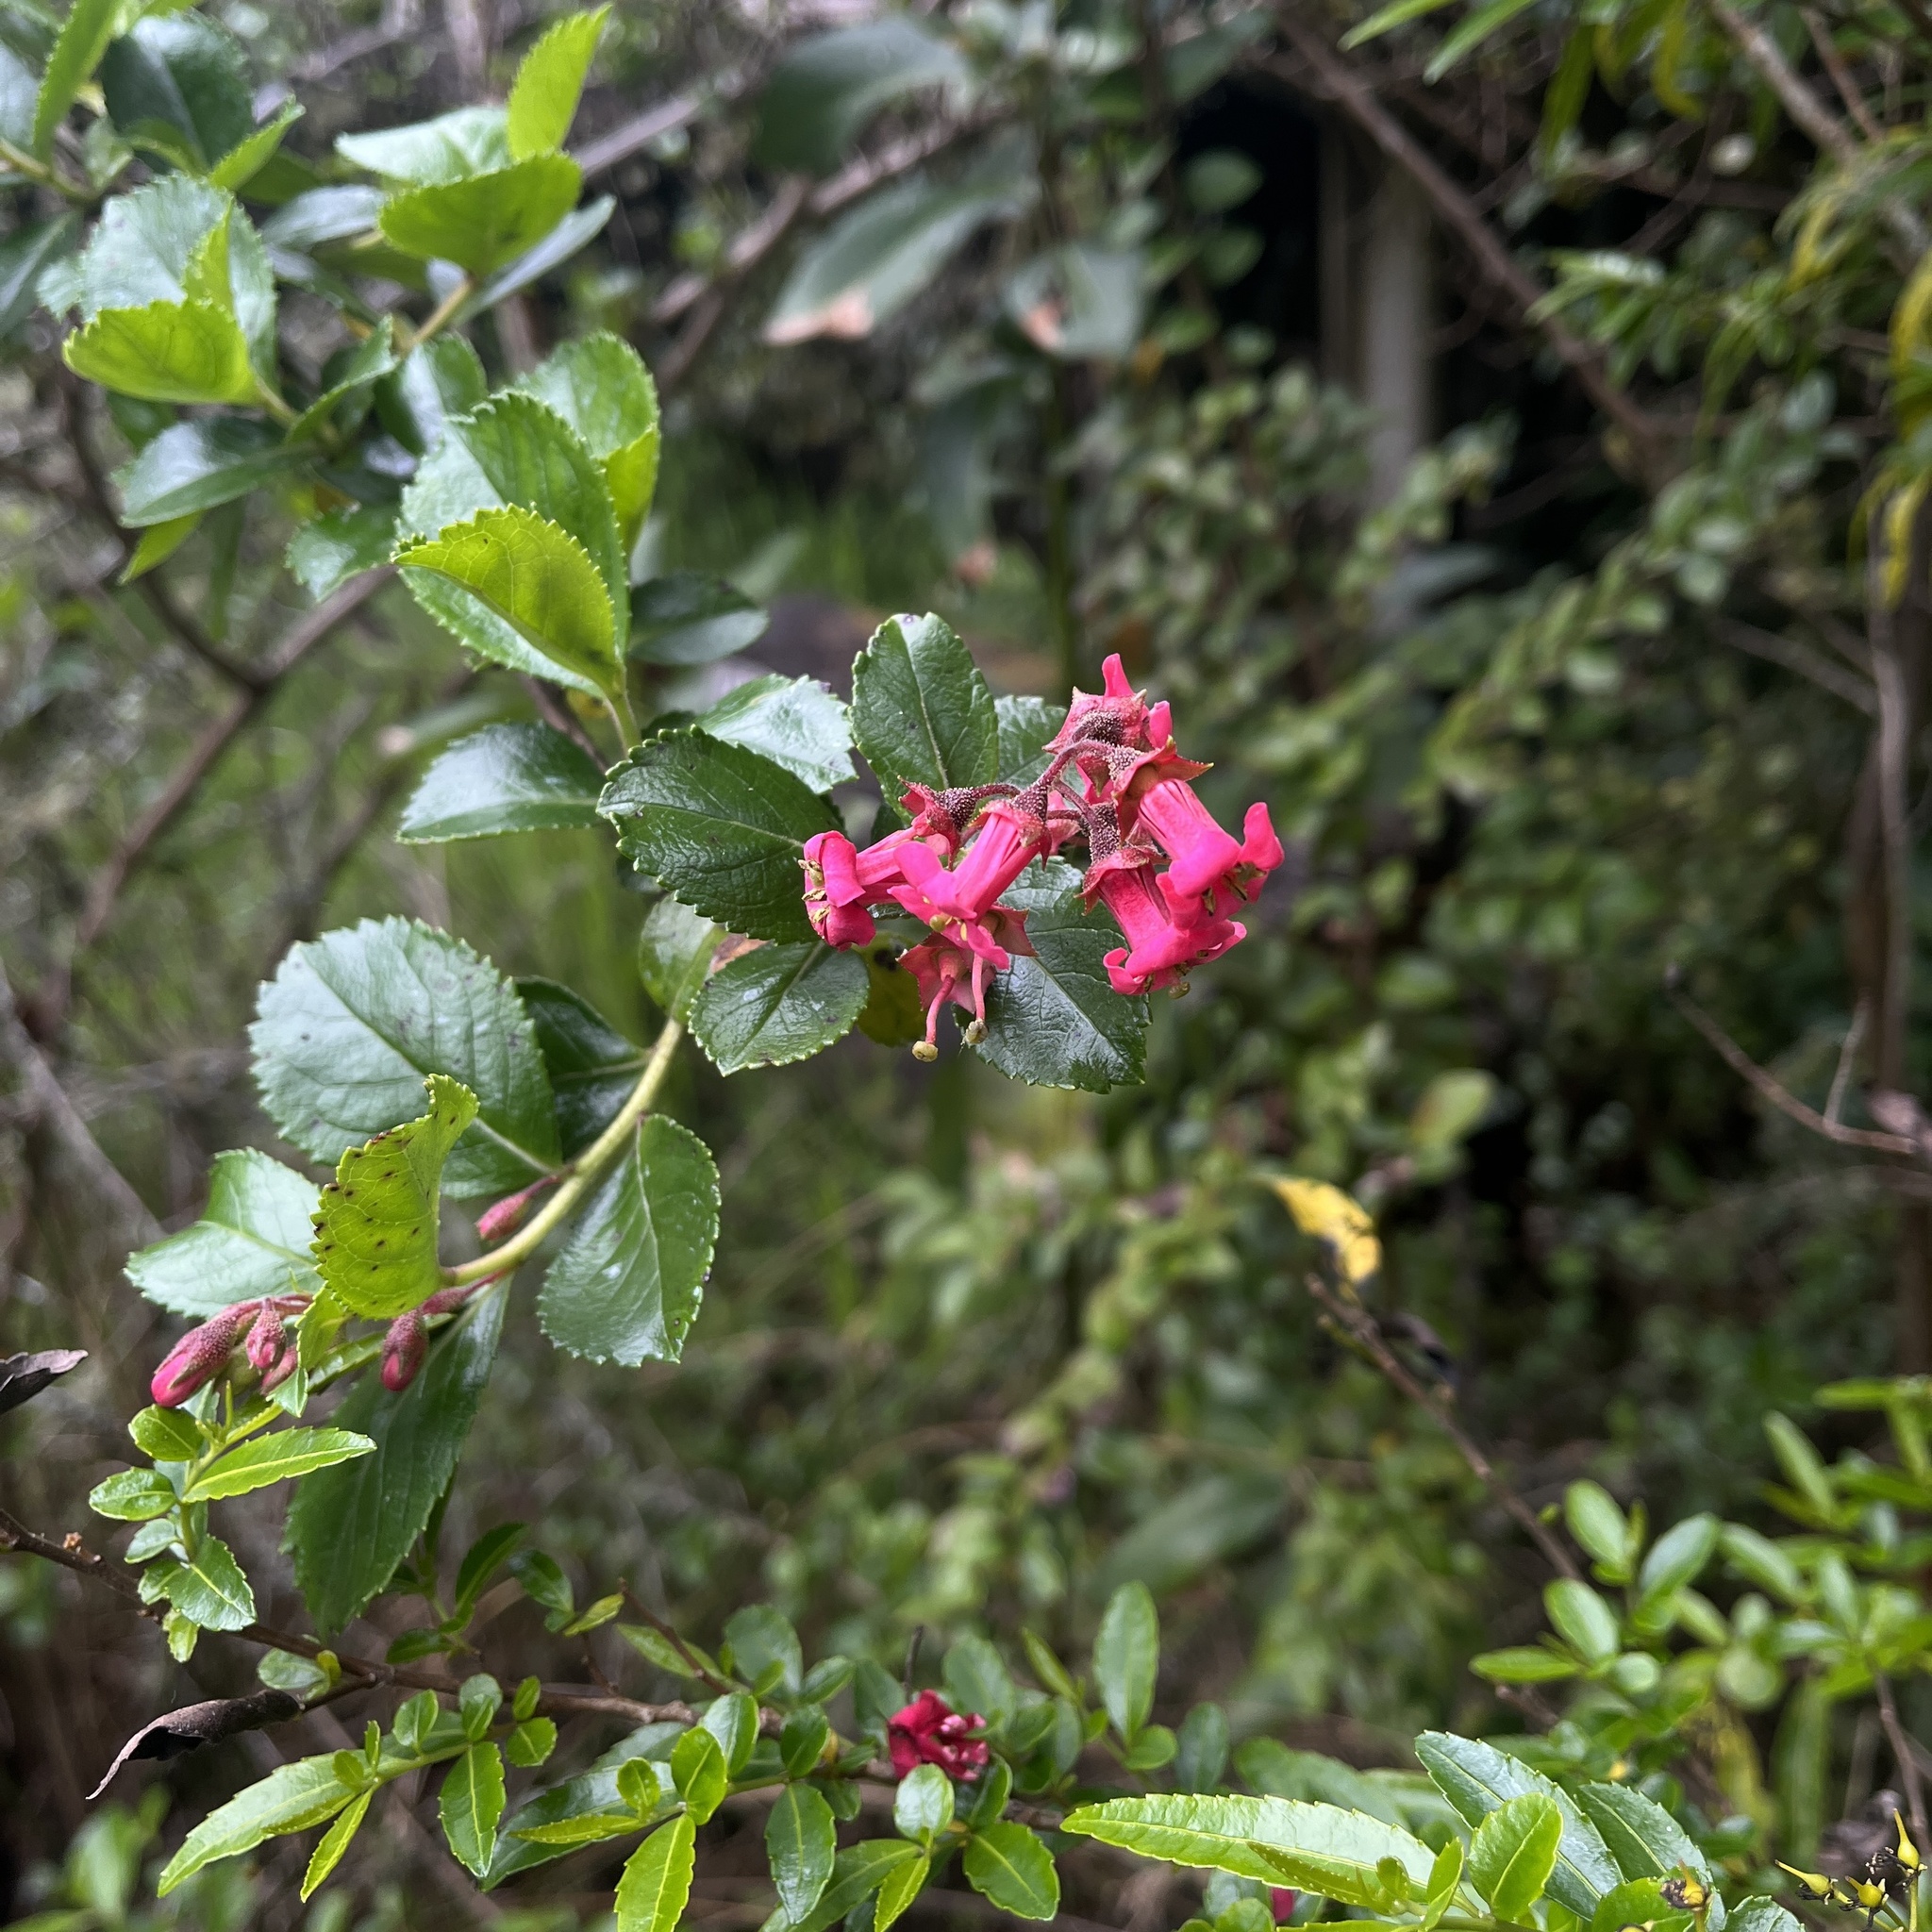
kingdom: Plantae
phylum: Tracheophyta
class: Magnoliopsida
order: Escalloniales
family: Escalloniaceae
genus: Escallonia
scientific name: Escallonia rubra
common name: Redclaws
